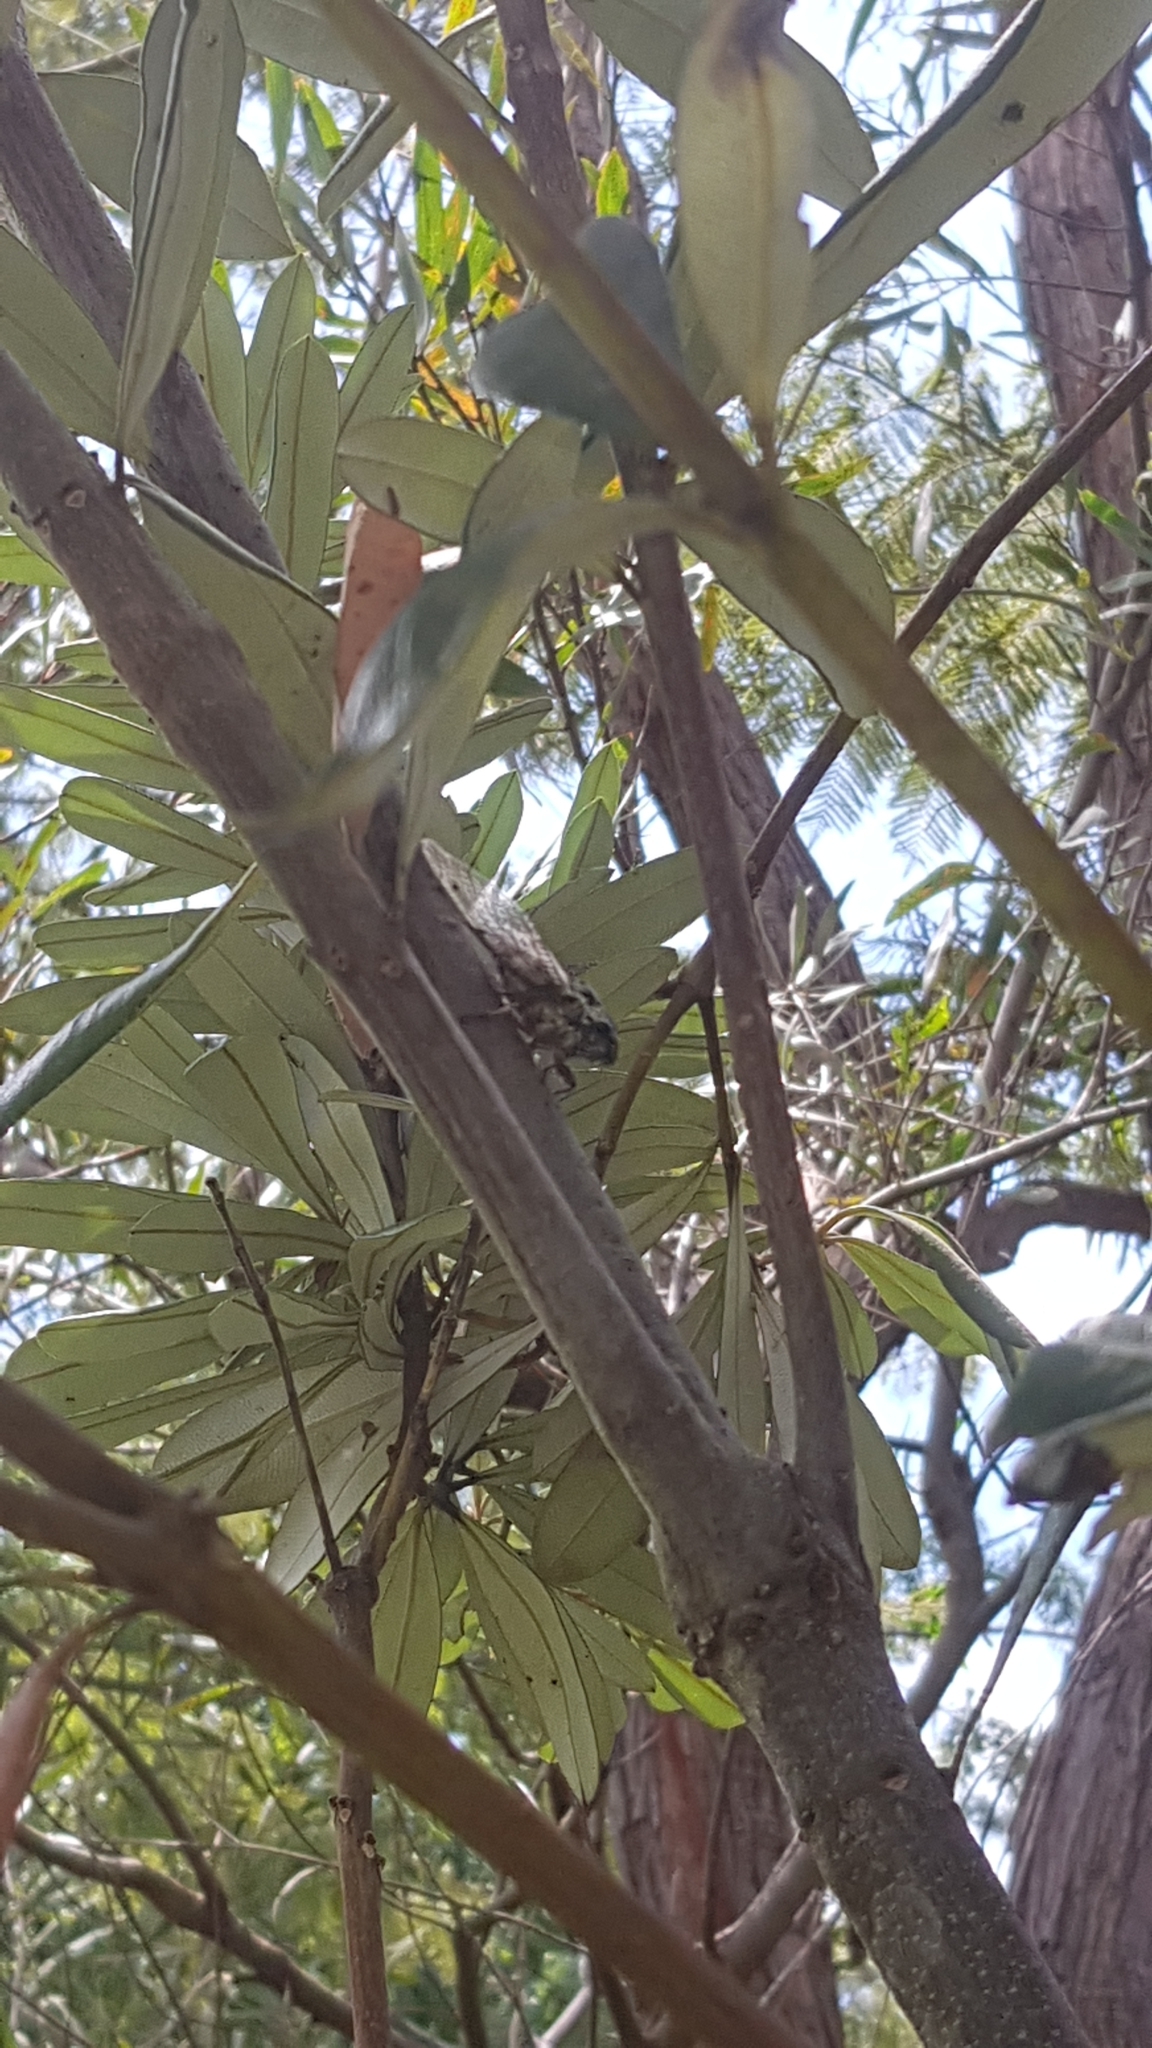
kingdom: Animalia
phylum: Arthropoda
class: Insecta
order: Hemiptera
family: Cicadidae
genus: Aleeta
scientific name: Aleeta curvicosta
